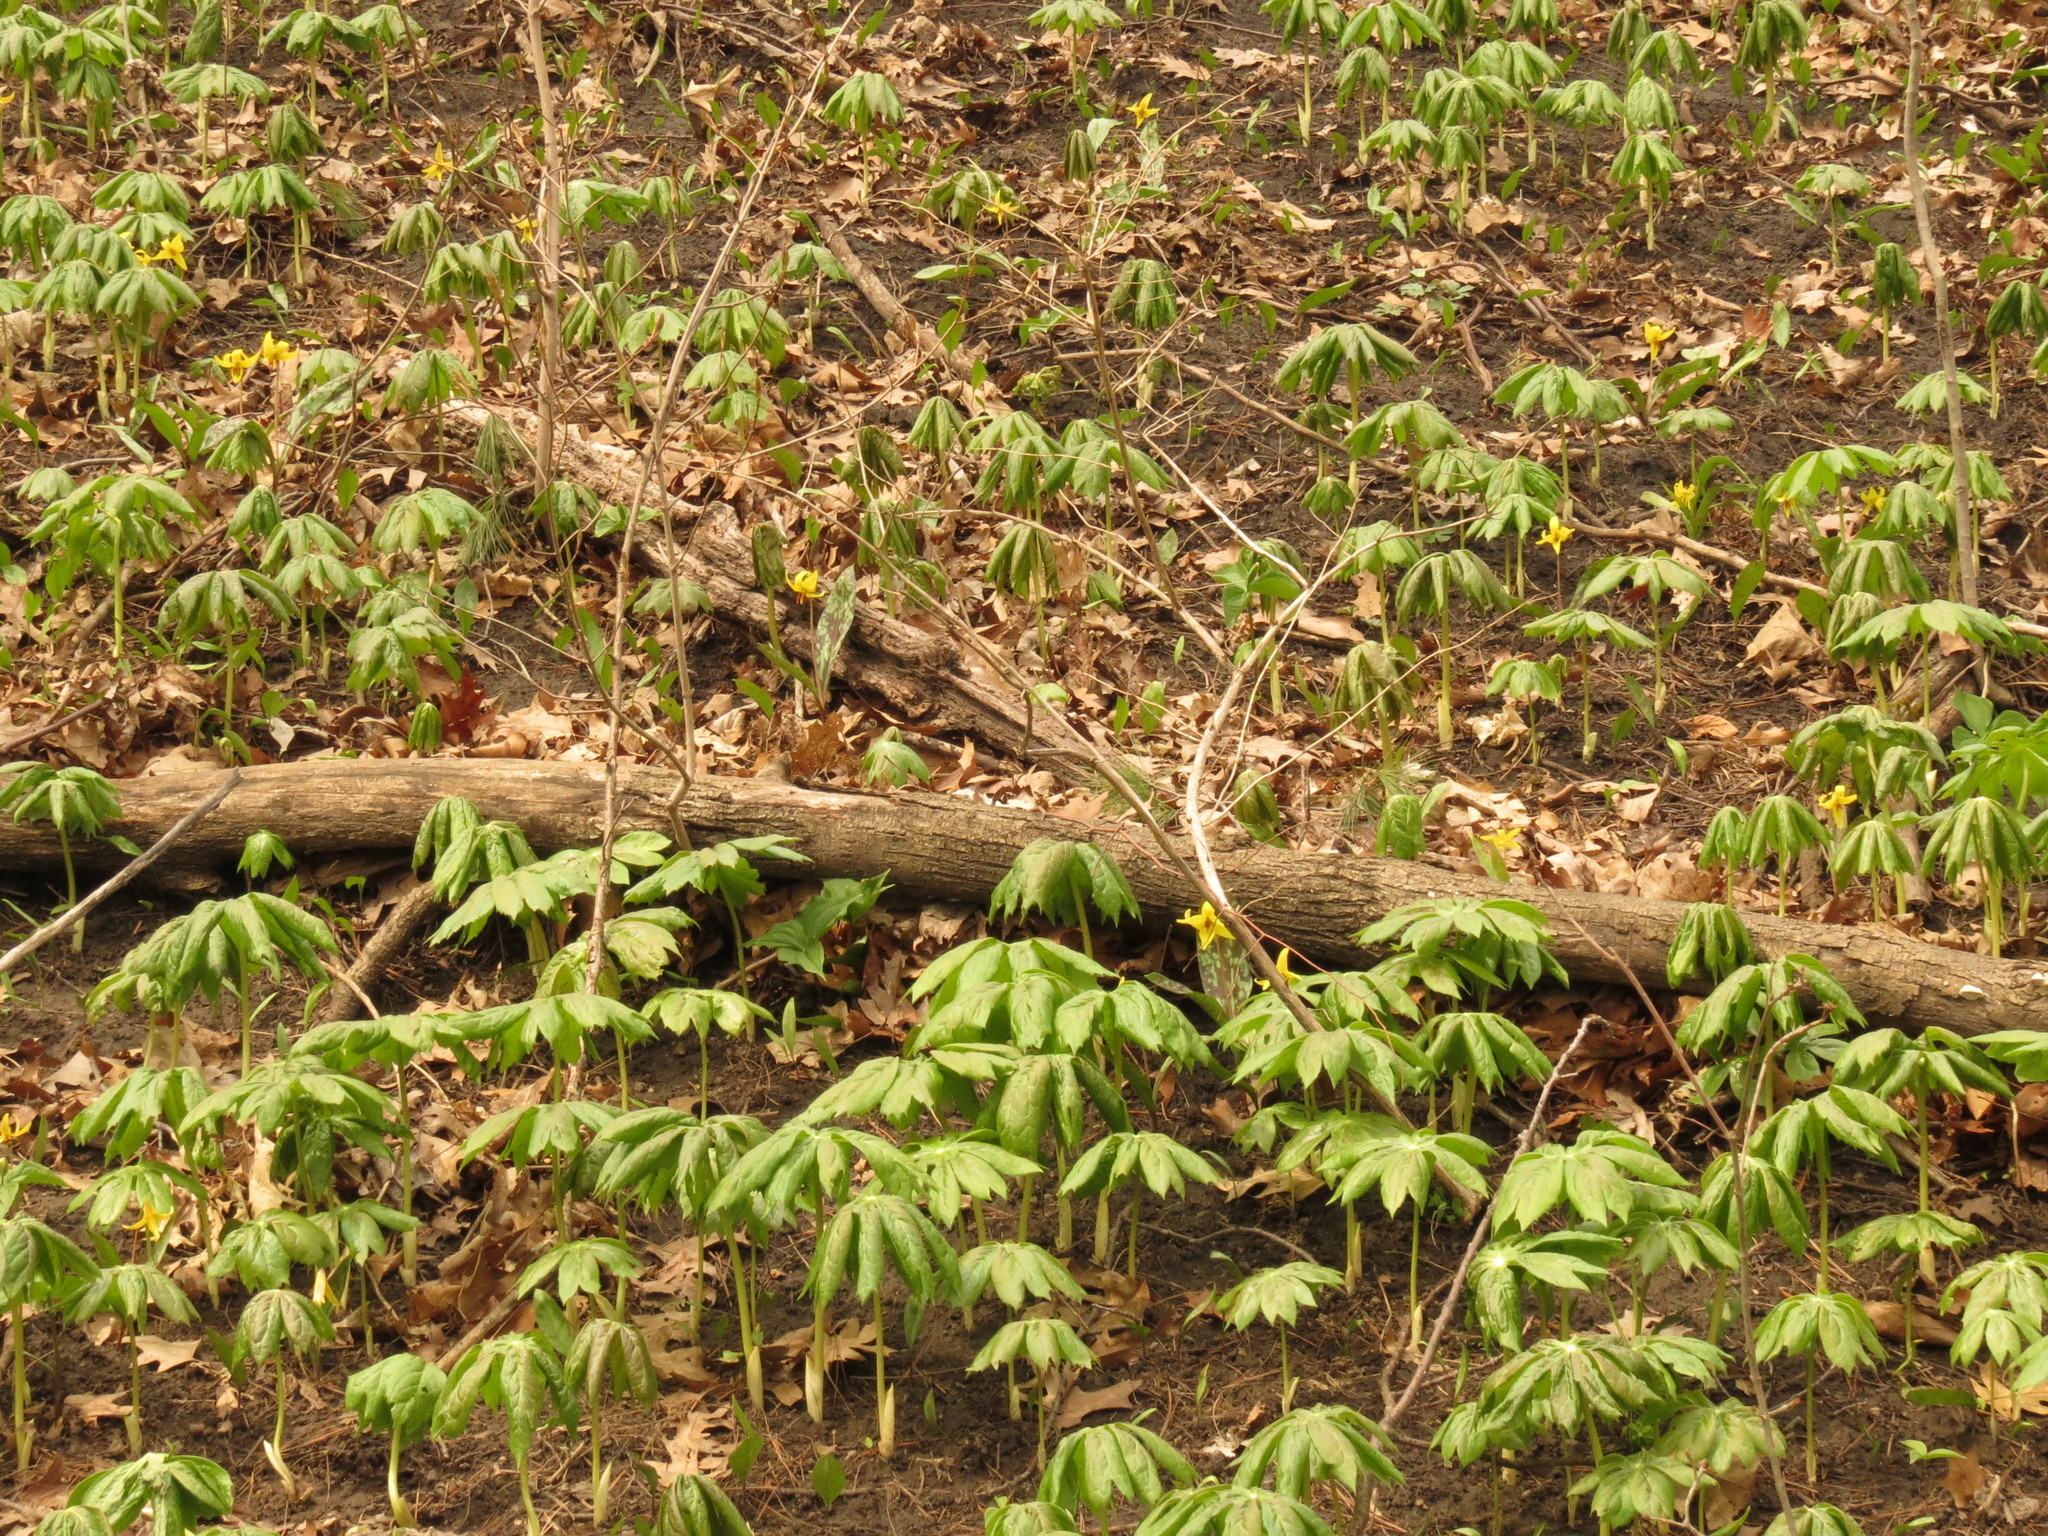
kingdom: Plantae
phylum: Tracheophyta
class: Magnoliopsida
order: Ranunculales
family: Berberidaceae
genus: Podophyllum
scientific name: Podophyllum peltatum
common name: Wild mandrake
